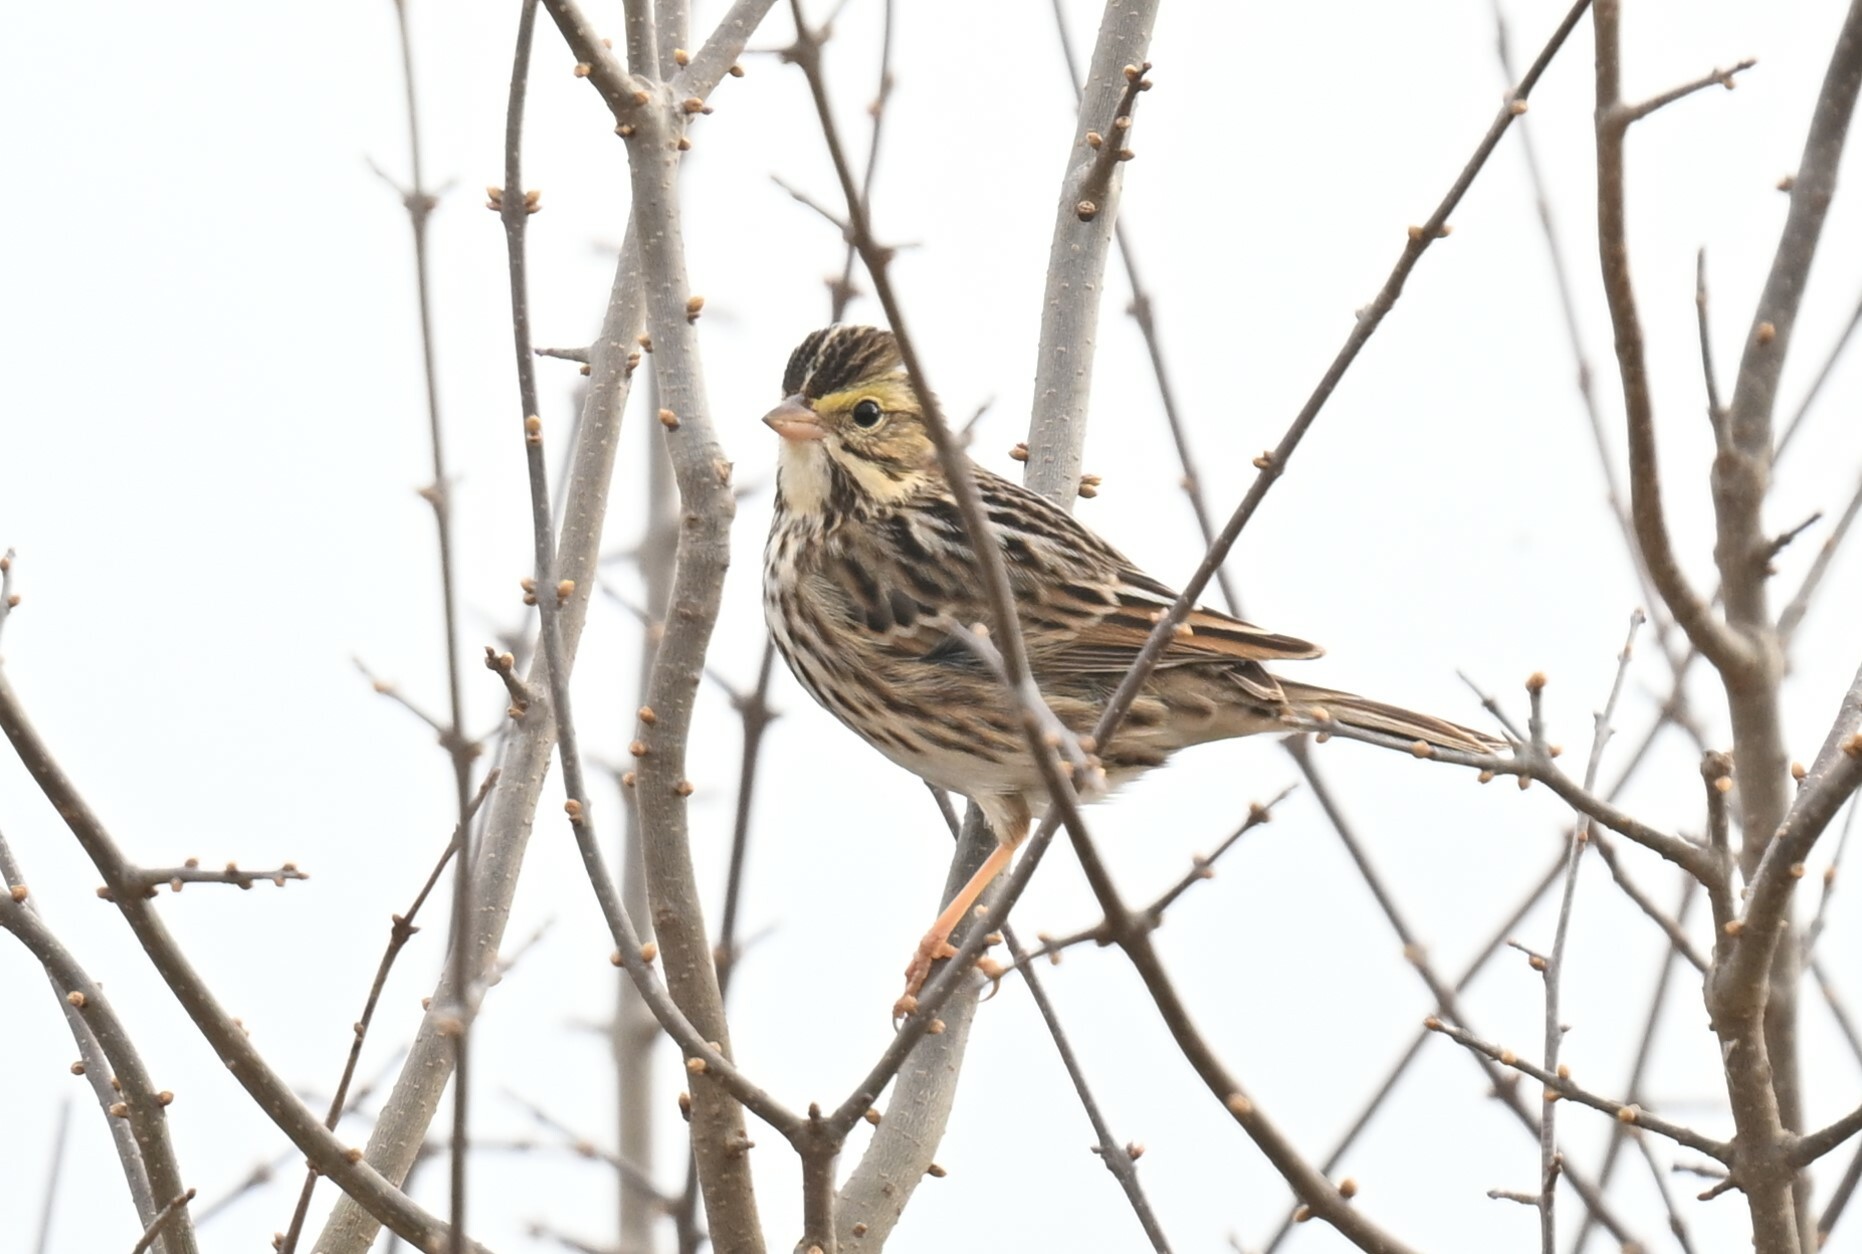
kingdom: Animalia
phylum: Chordata
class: Aves
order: Passeriformes
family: Passerellidae
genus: Passerculus
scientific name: Passerculus sandwichensis
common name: Savannah sparrow
